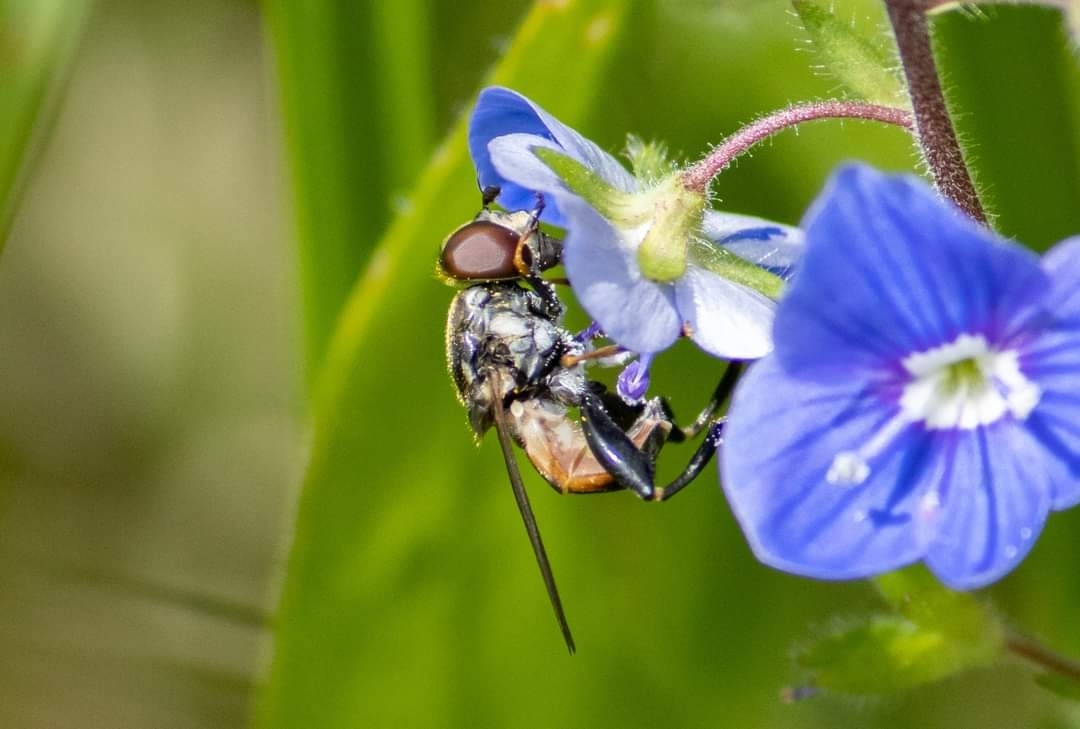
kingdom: Animalia
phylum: Arthropoda
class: Insecta
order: Diptera
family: Syrphidae
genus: Tropidia
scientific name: Tropidia scita
